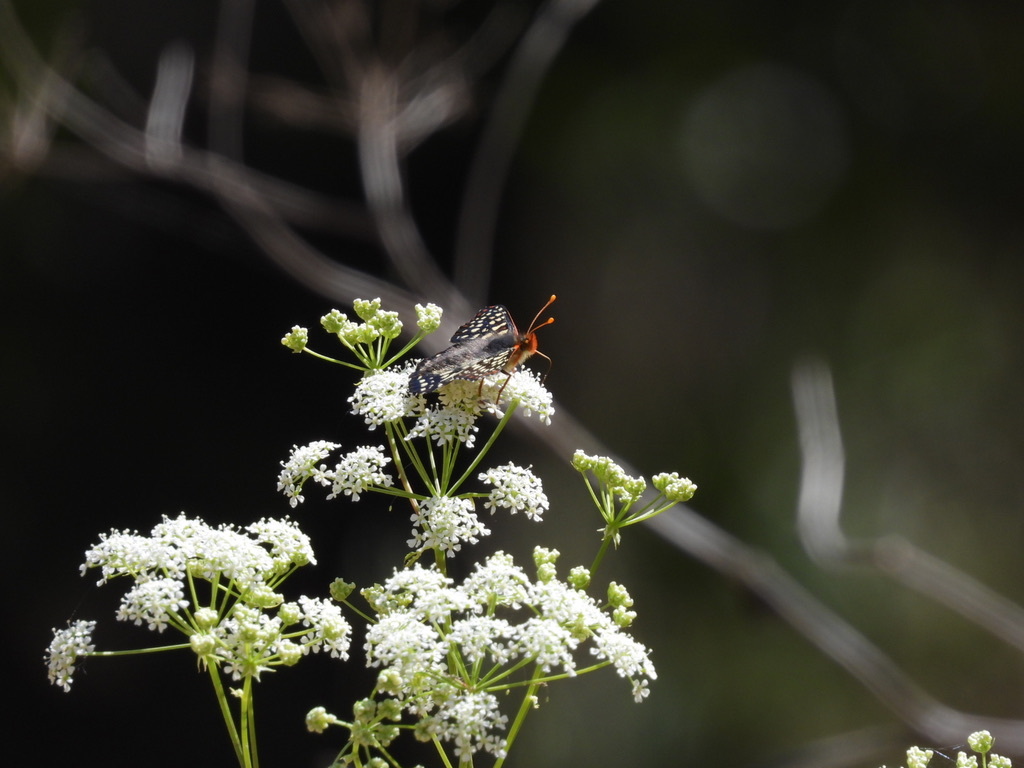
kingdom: Animalia
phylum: Arthropoda
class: Insecta
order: Lepidoptera
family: Nymphalidae
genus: Occidryas
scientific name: Occidryas chalcedona
